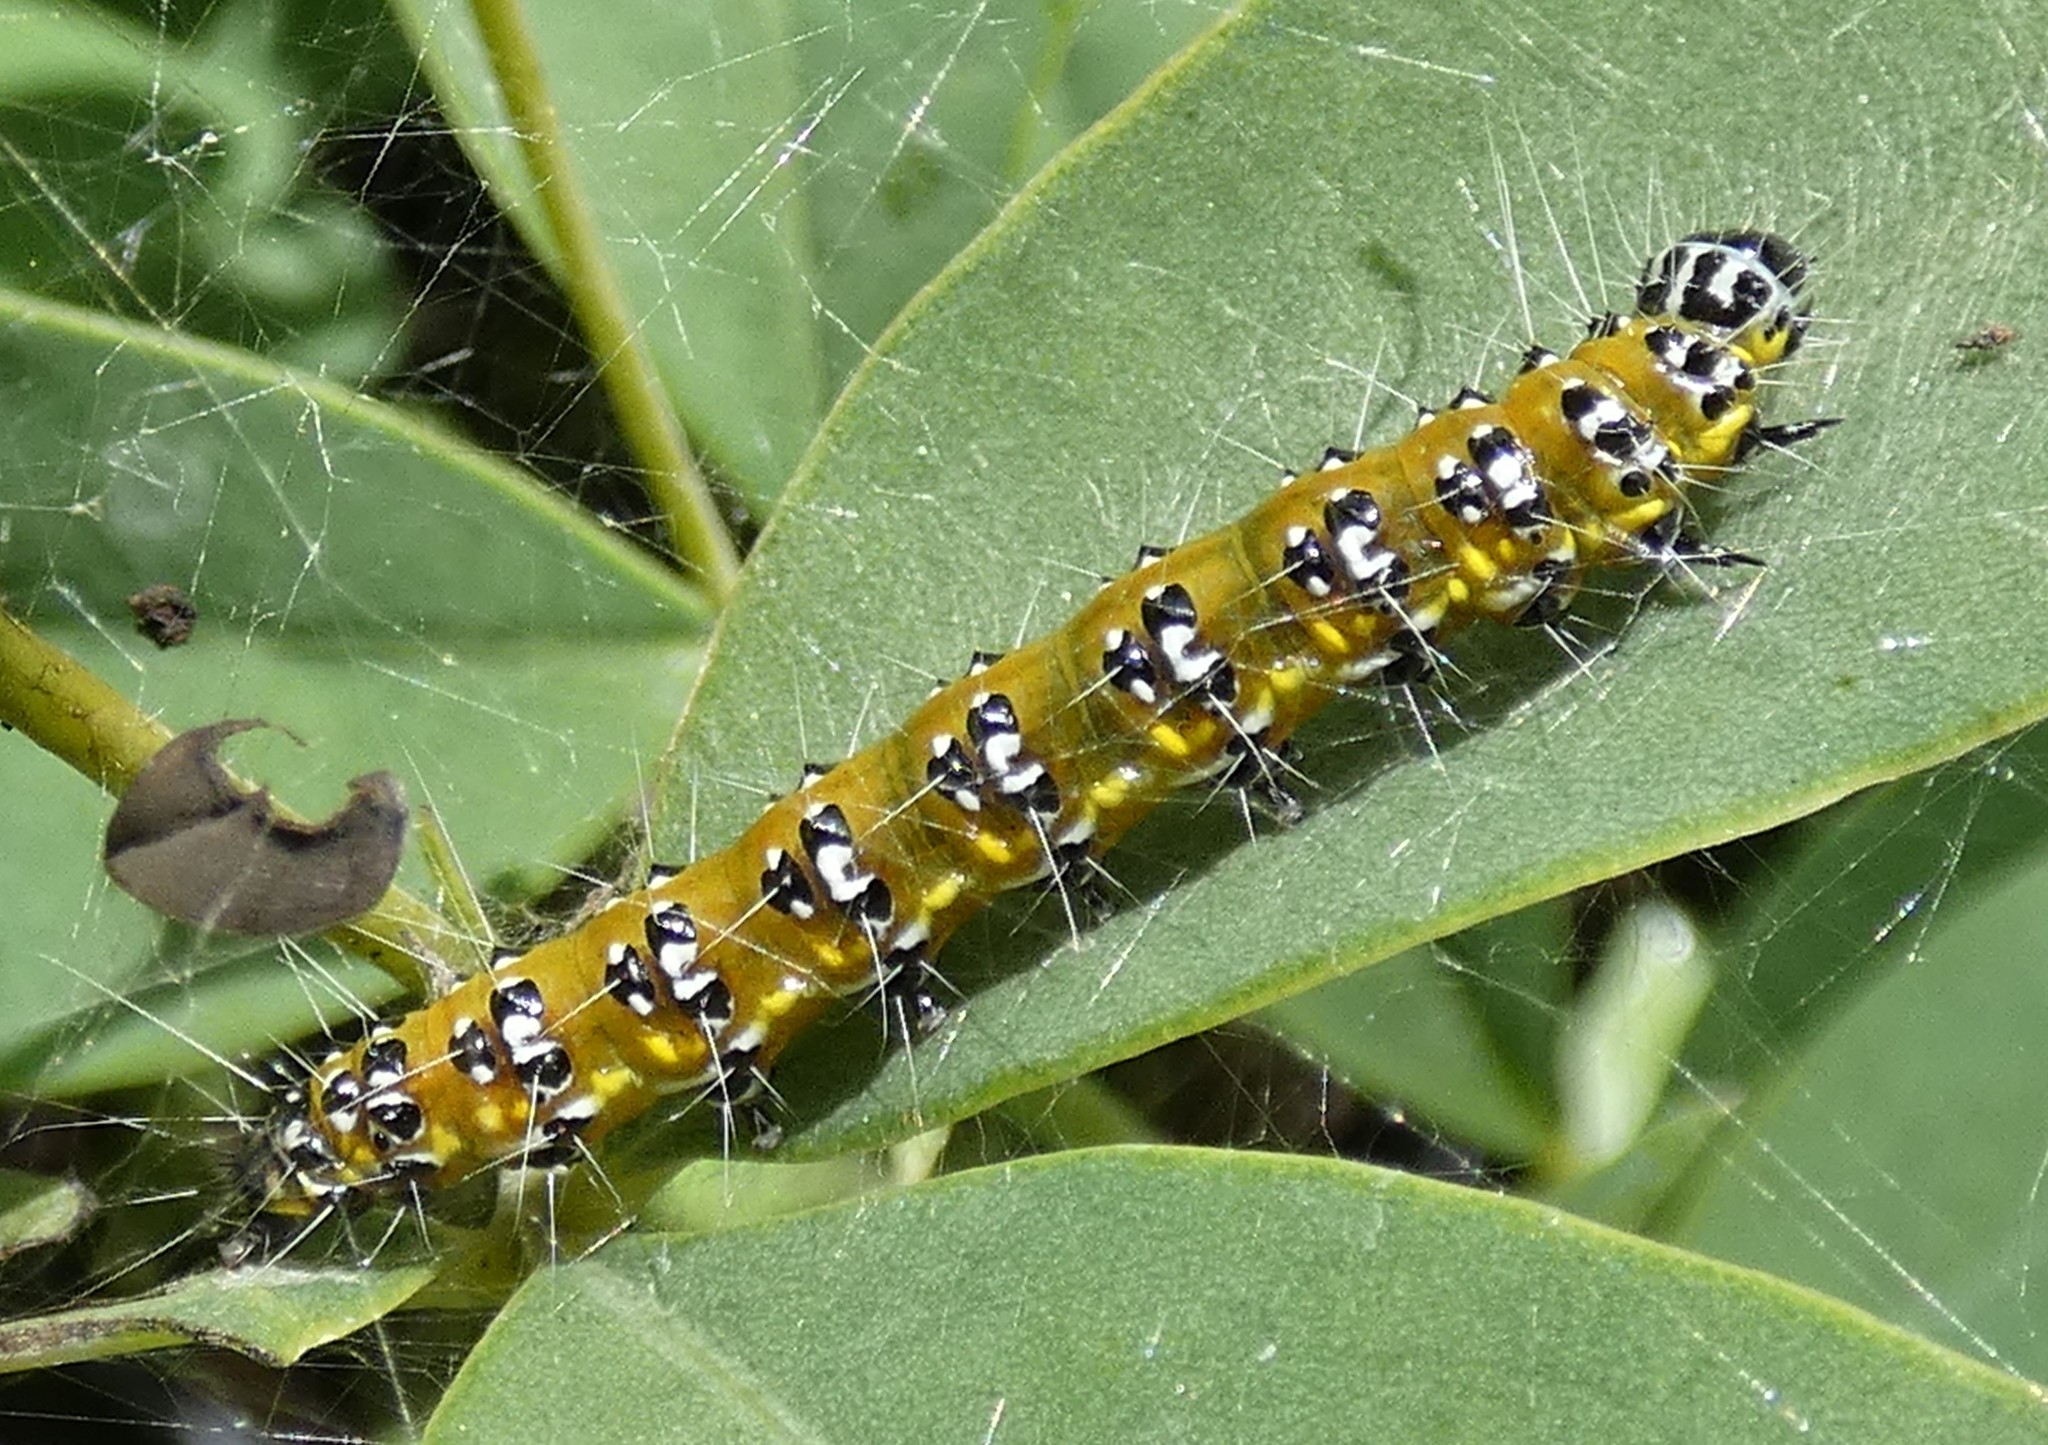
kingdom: Animalia
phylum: Arthropoda
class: Insecta
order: Lepidoptera
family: Crambidae
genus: Uresiphita
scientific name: Uresiphita reversalis
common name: Genista broom moth
